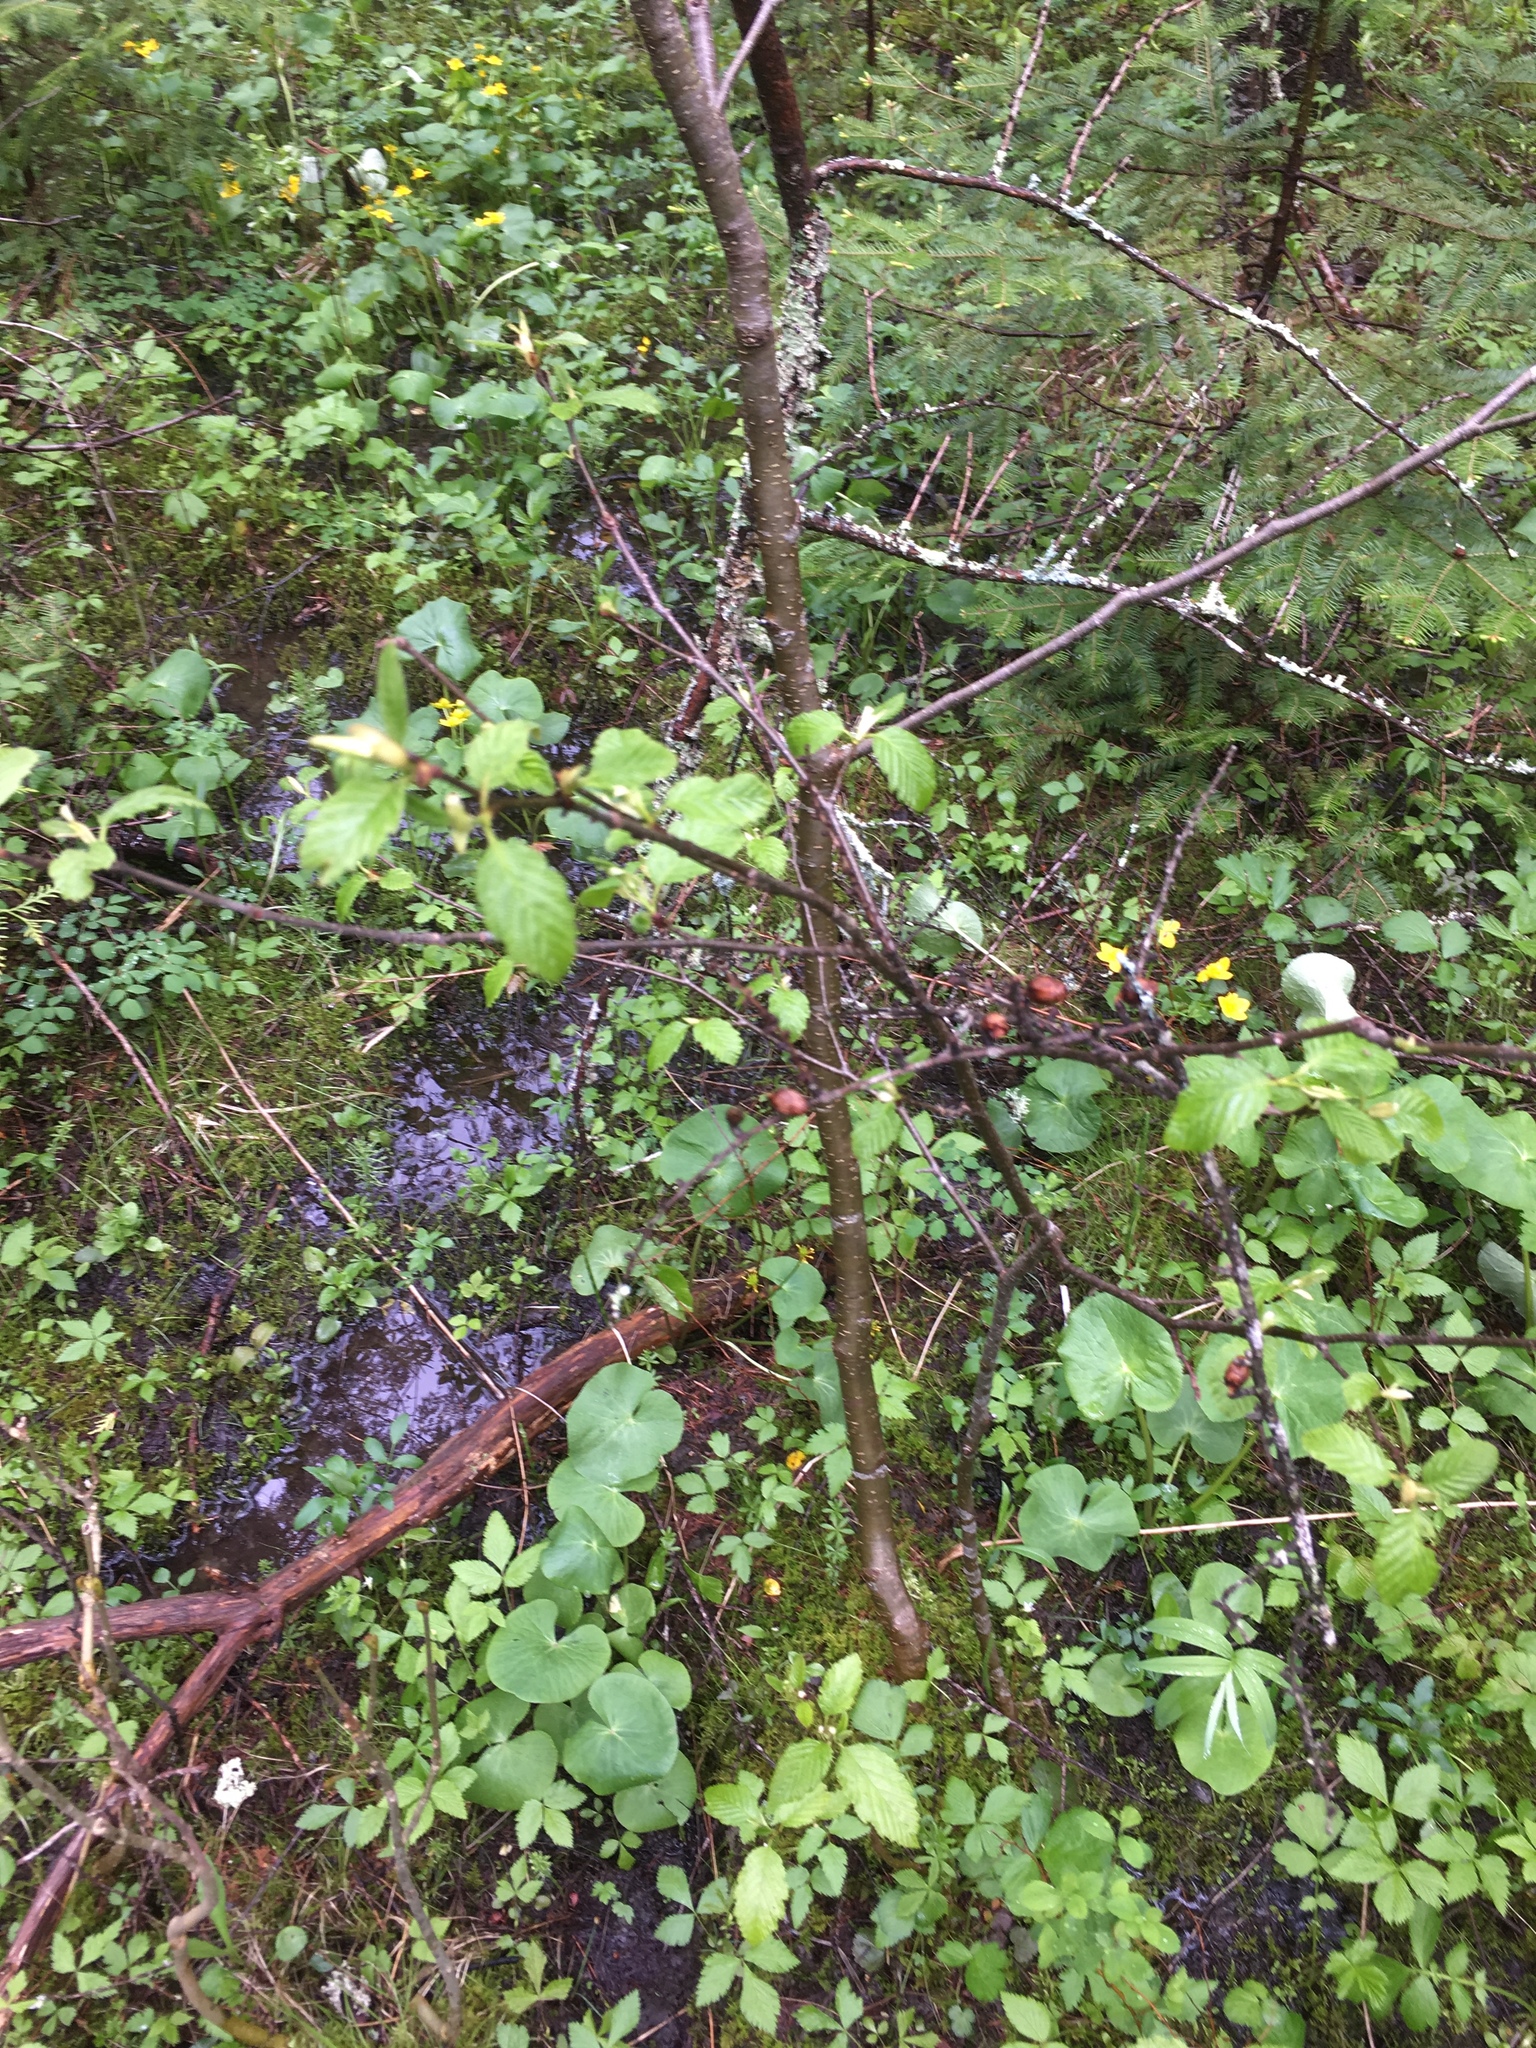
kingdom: Plantae
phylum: Tracheophyta
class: Pinopsida
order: Pinales
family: Pinaceae
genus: Abies
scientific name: Abies balsamea
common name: Balsam fir
